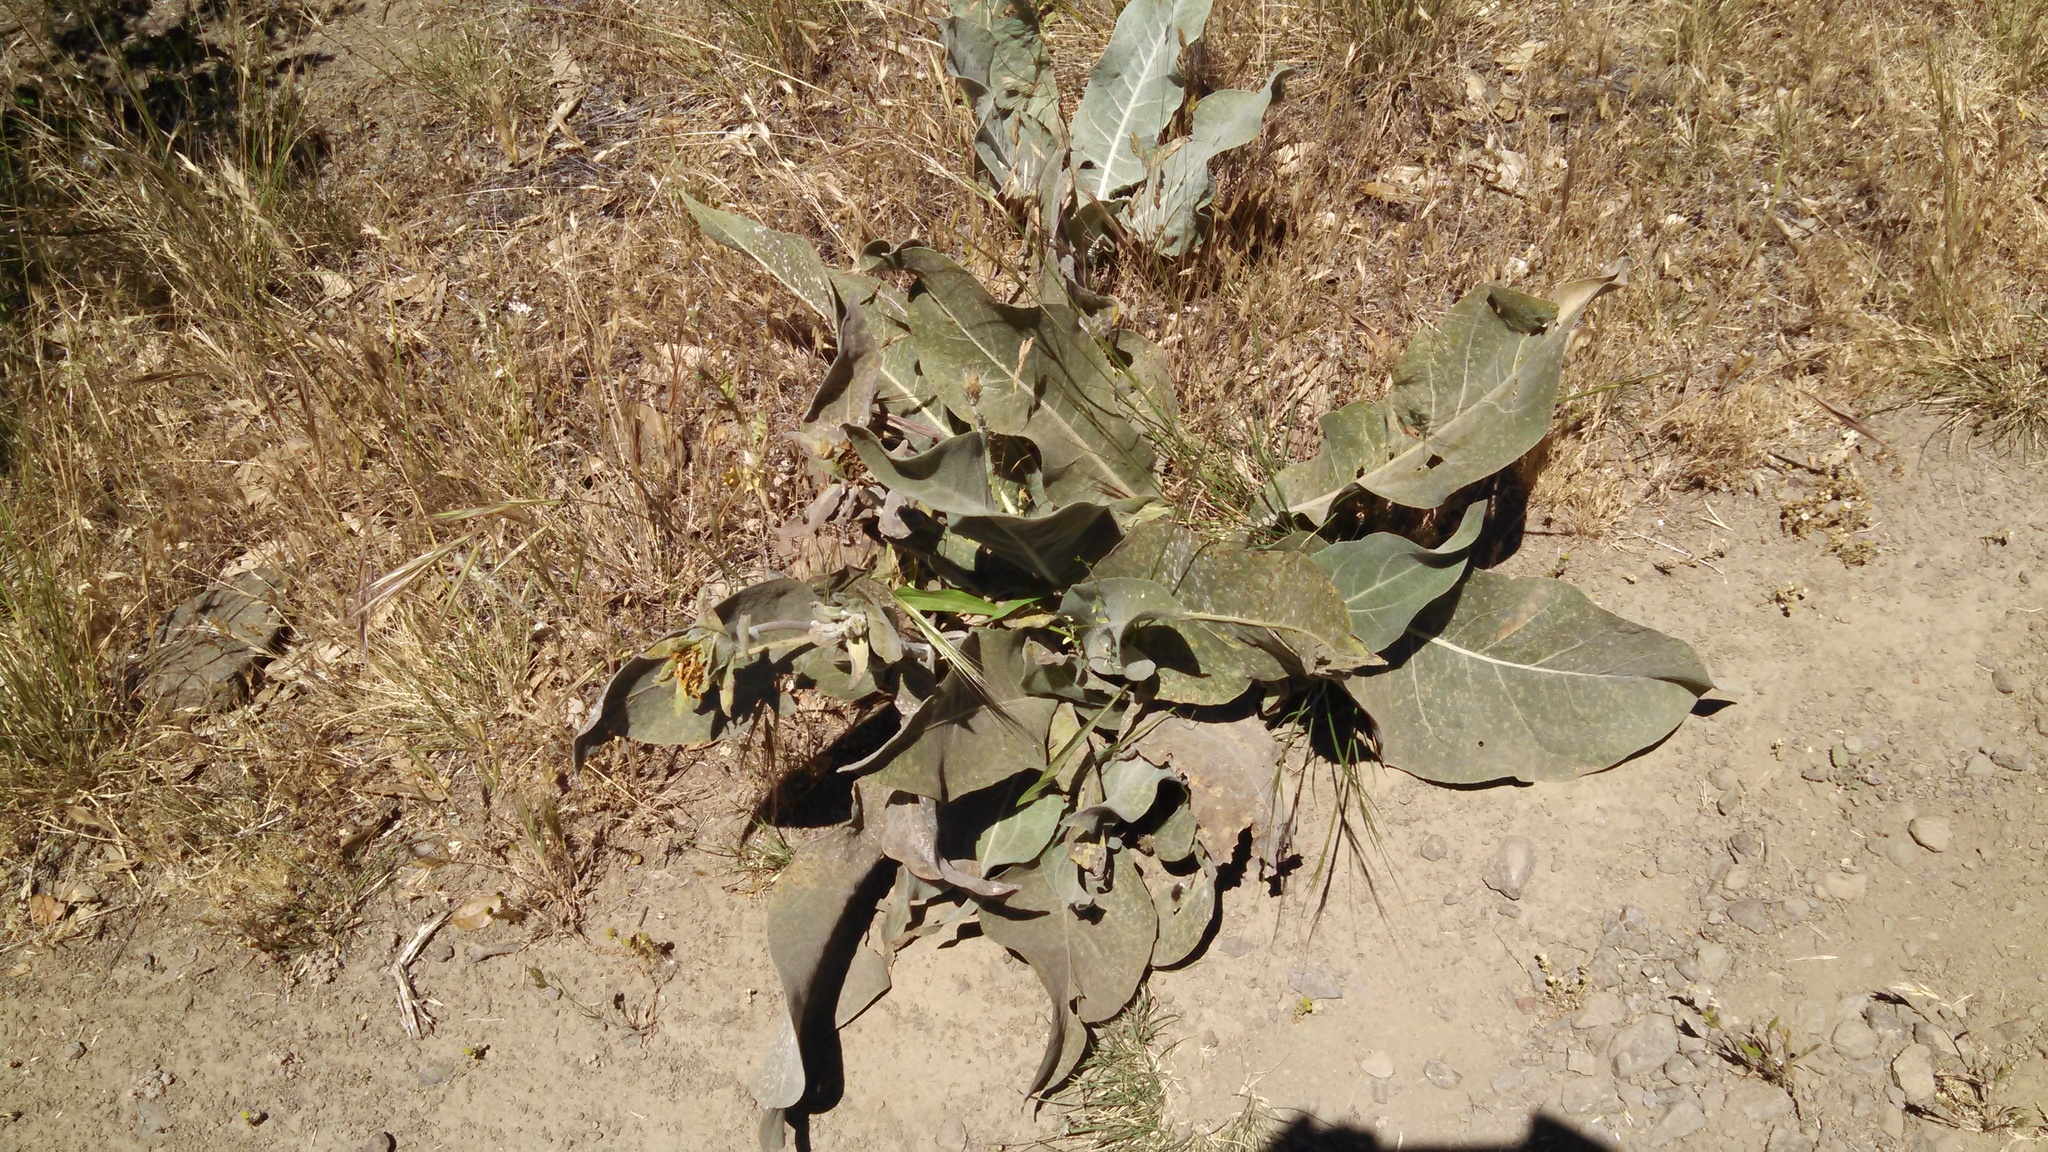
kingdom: Plantae
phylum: Tracheophyta
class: Magnoliopsida
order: Asterales
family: Asteraceae
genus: Wyethia
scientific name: Wyethia helenioides
